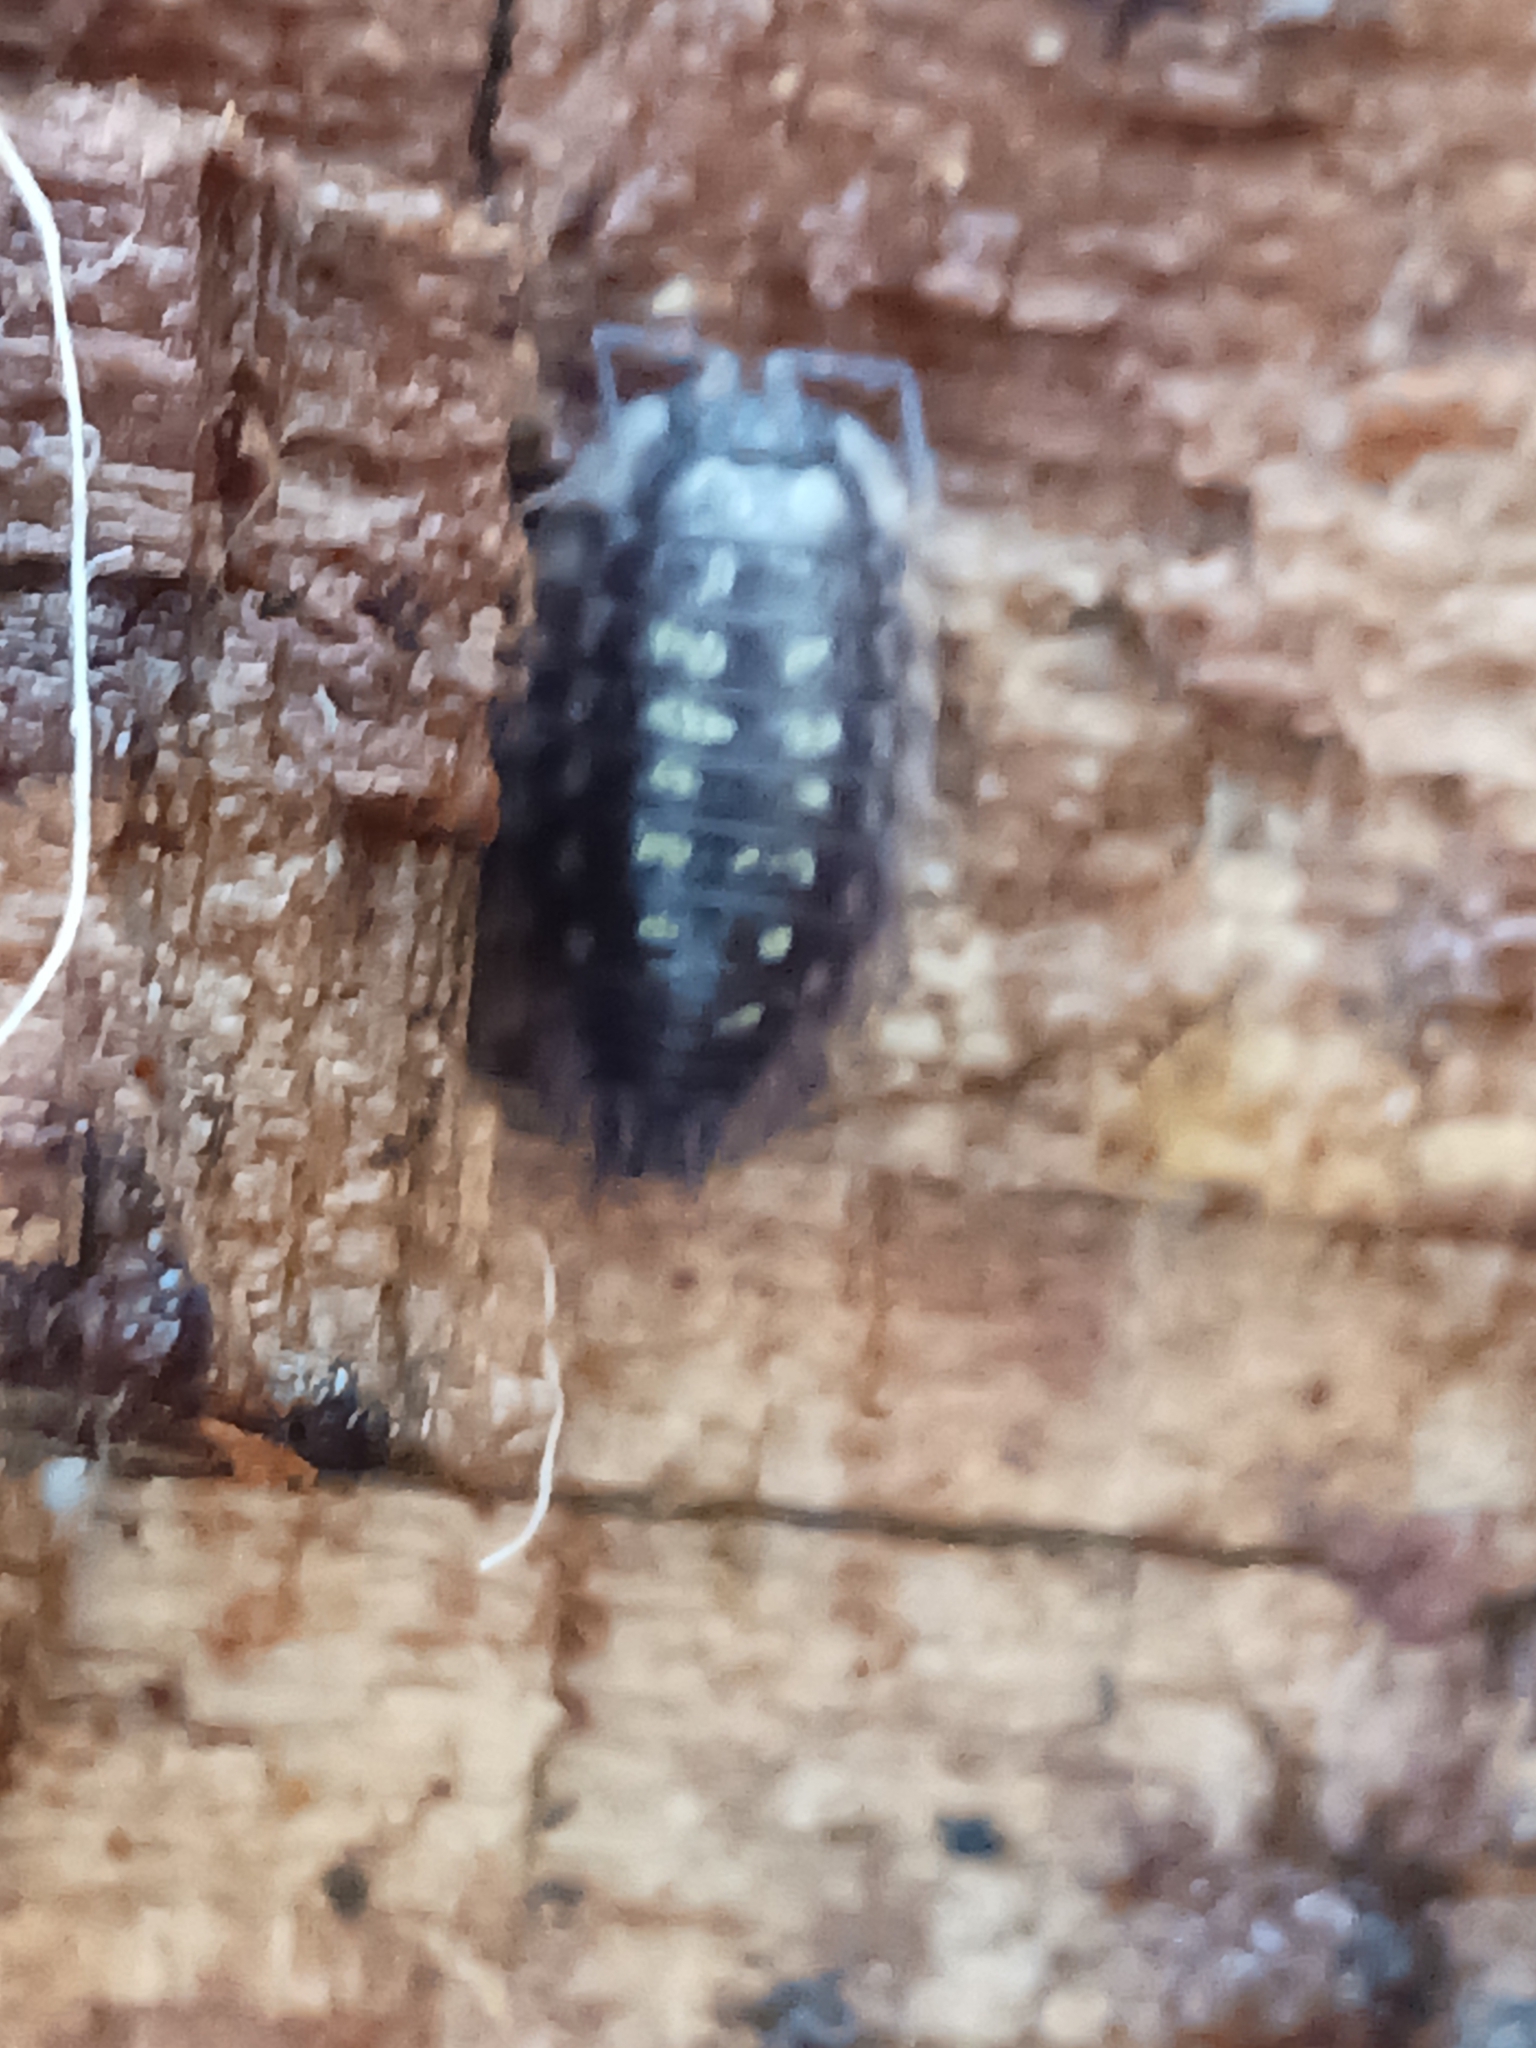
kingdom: Animalia
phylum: Arthropoda
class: Malacostraca
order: Isopoda
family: Oniscidae
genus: Oniscus
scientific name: Oniscus asellus
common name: Common shiny woodlouse
